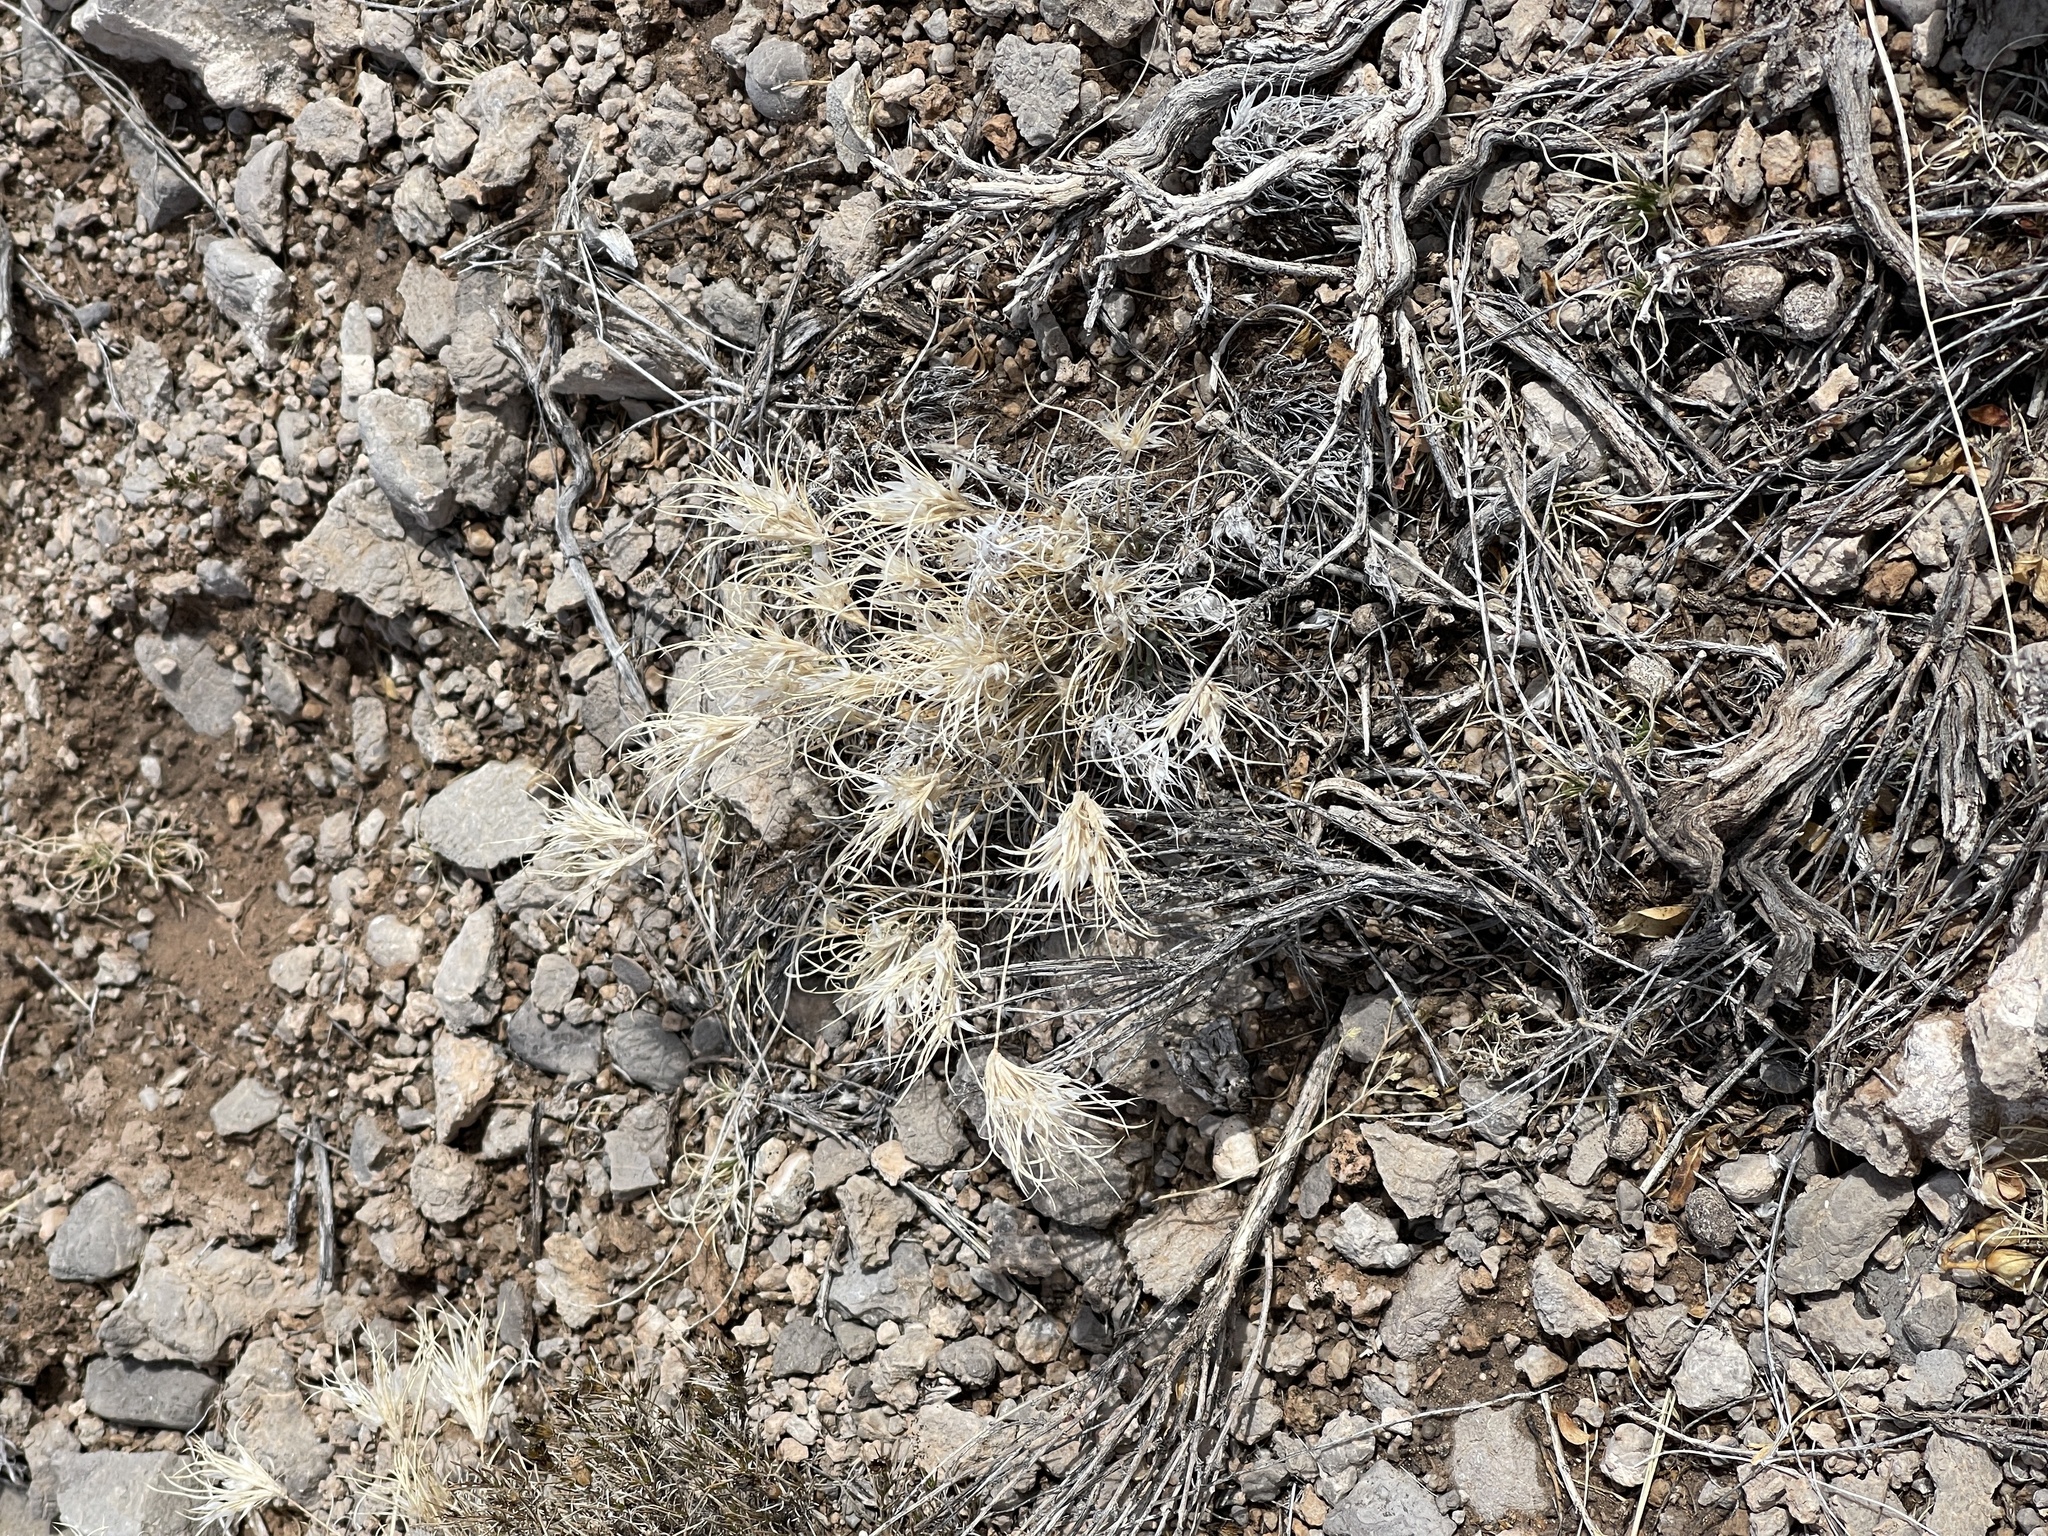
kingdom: Plantae
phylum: Tracheophyta
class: Liliopsida
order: Poales
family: Poaceae
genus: Dasyochloa
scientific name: Dasyochloa pulchella
